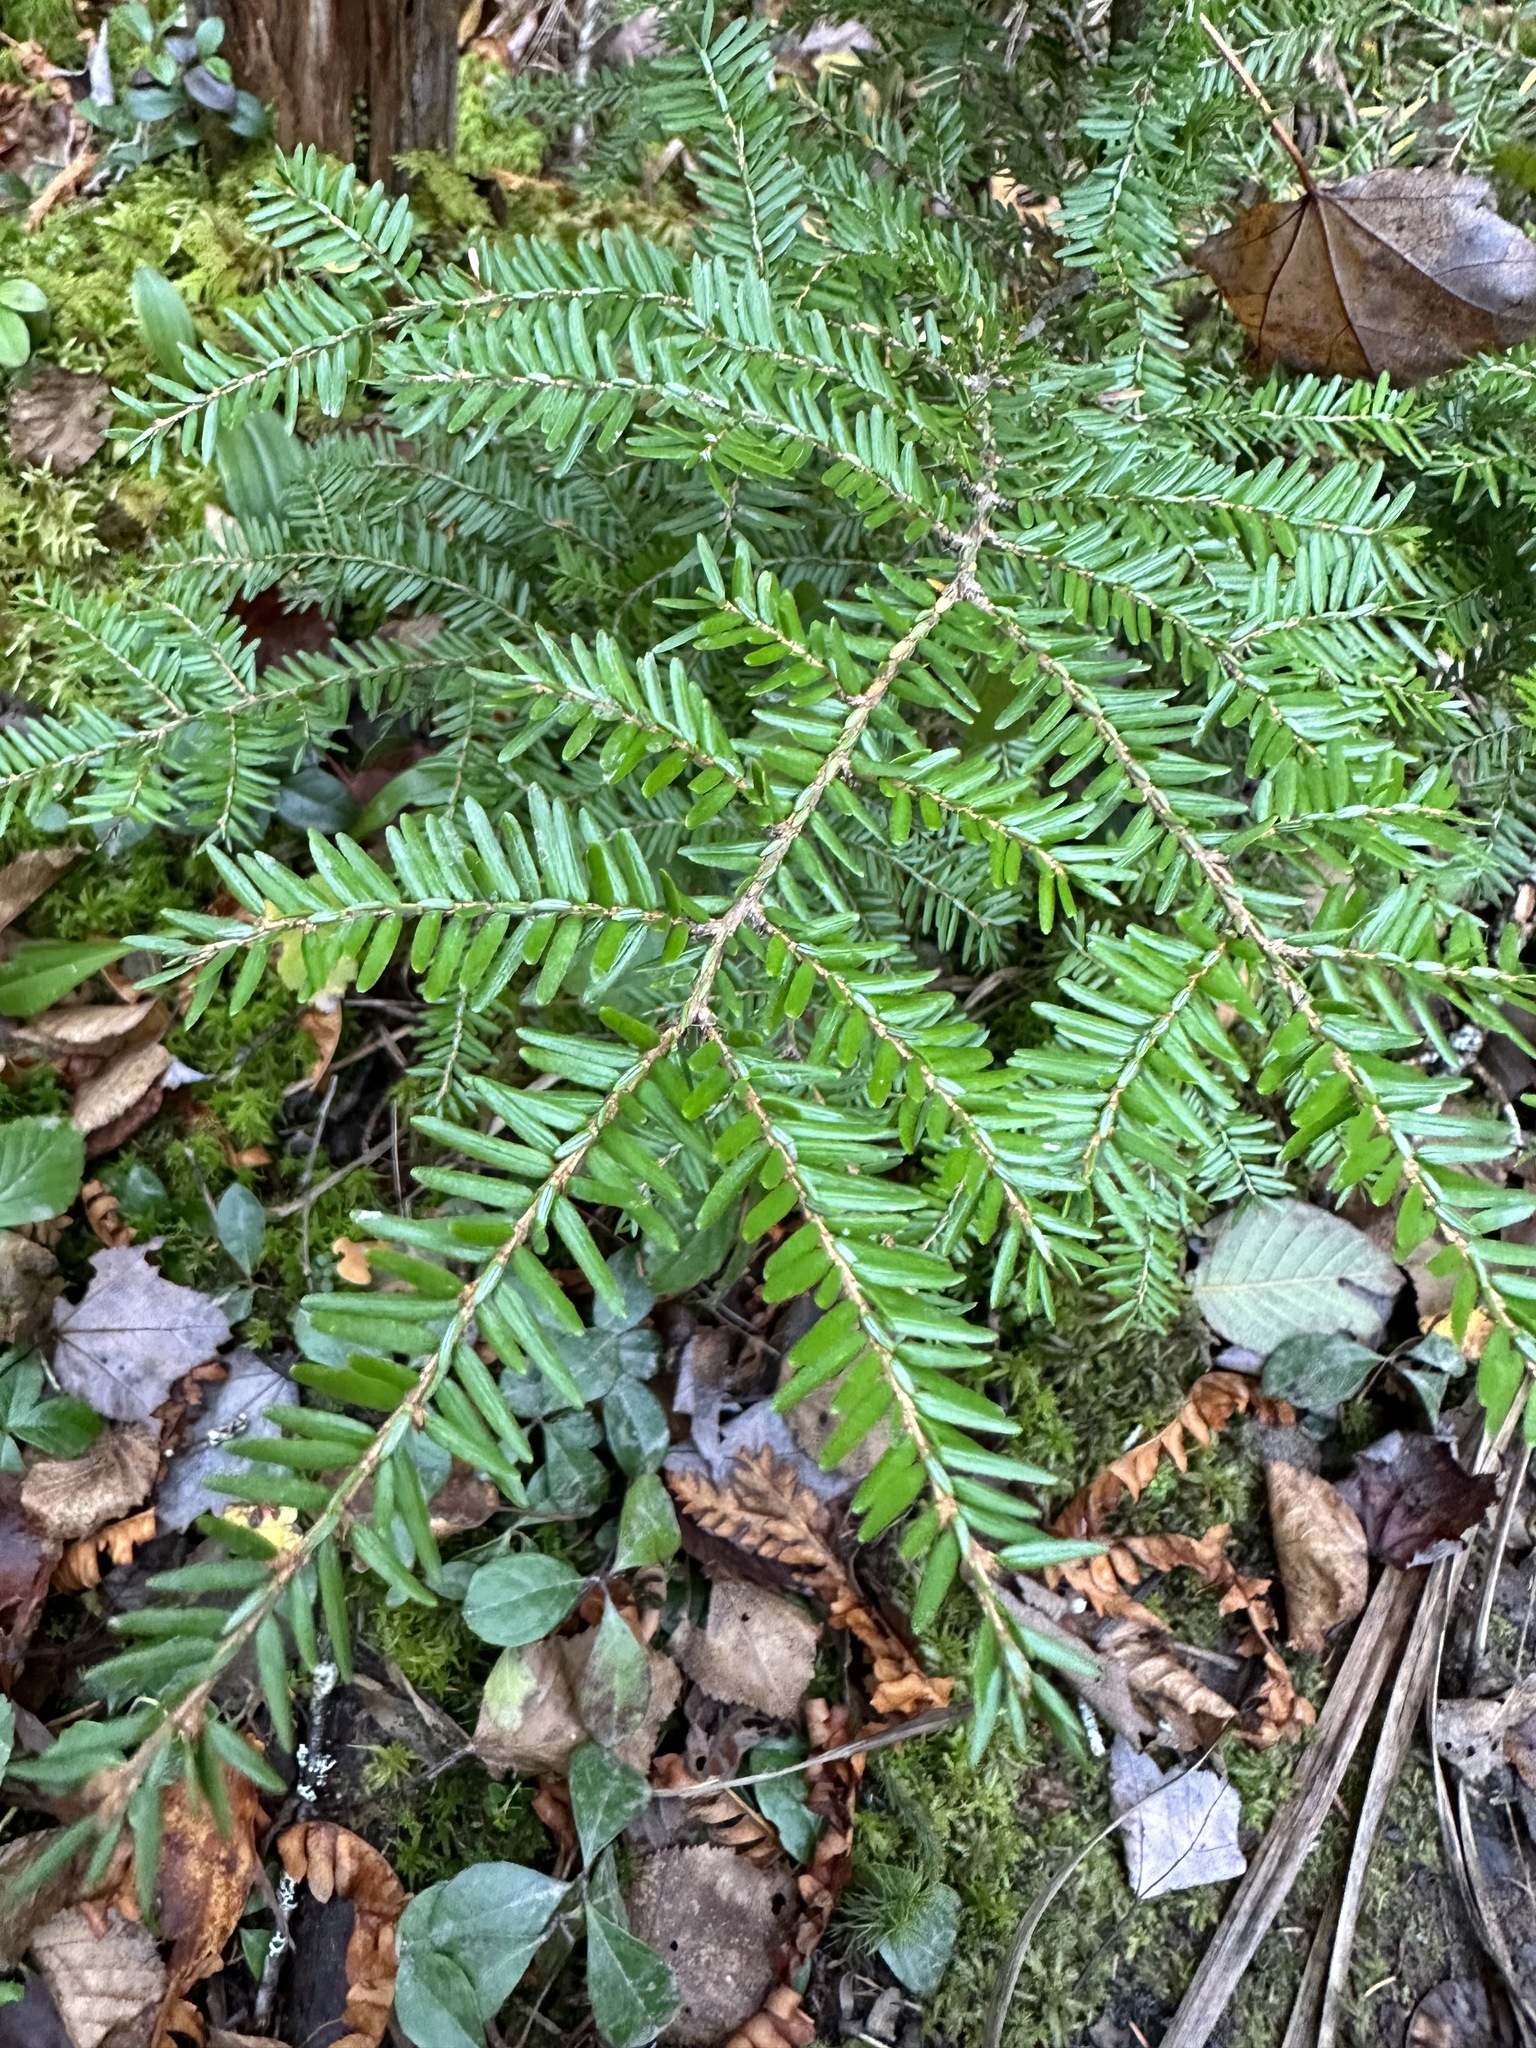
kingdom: Plantae
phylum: Tracheophyta
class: Pinopsida
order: Pinales
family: Pinaceae
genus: Tsuga
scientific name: Tsuga canadensis
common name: Eastern hemlock
